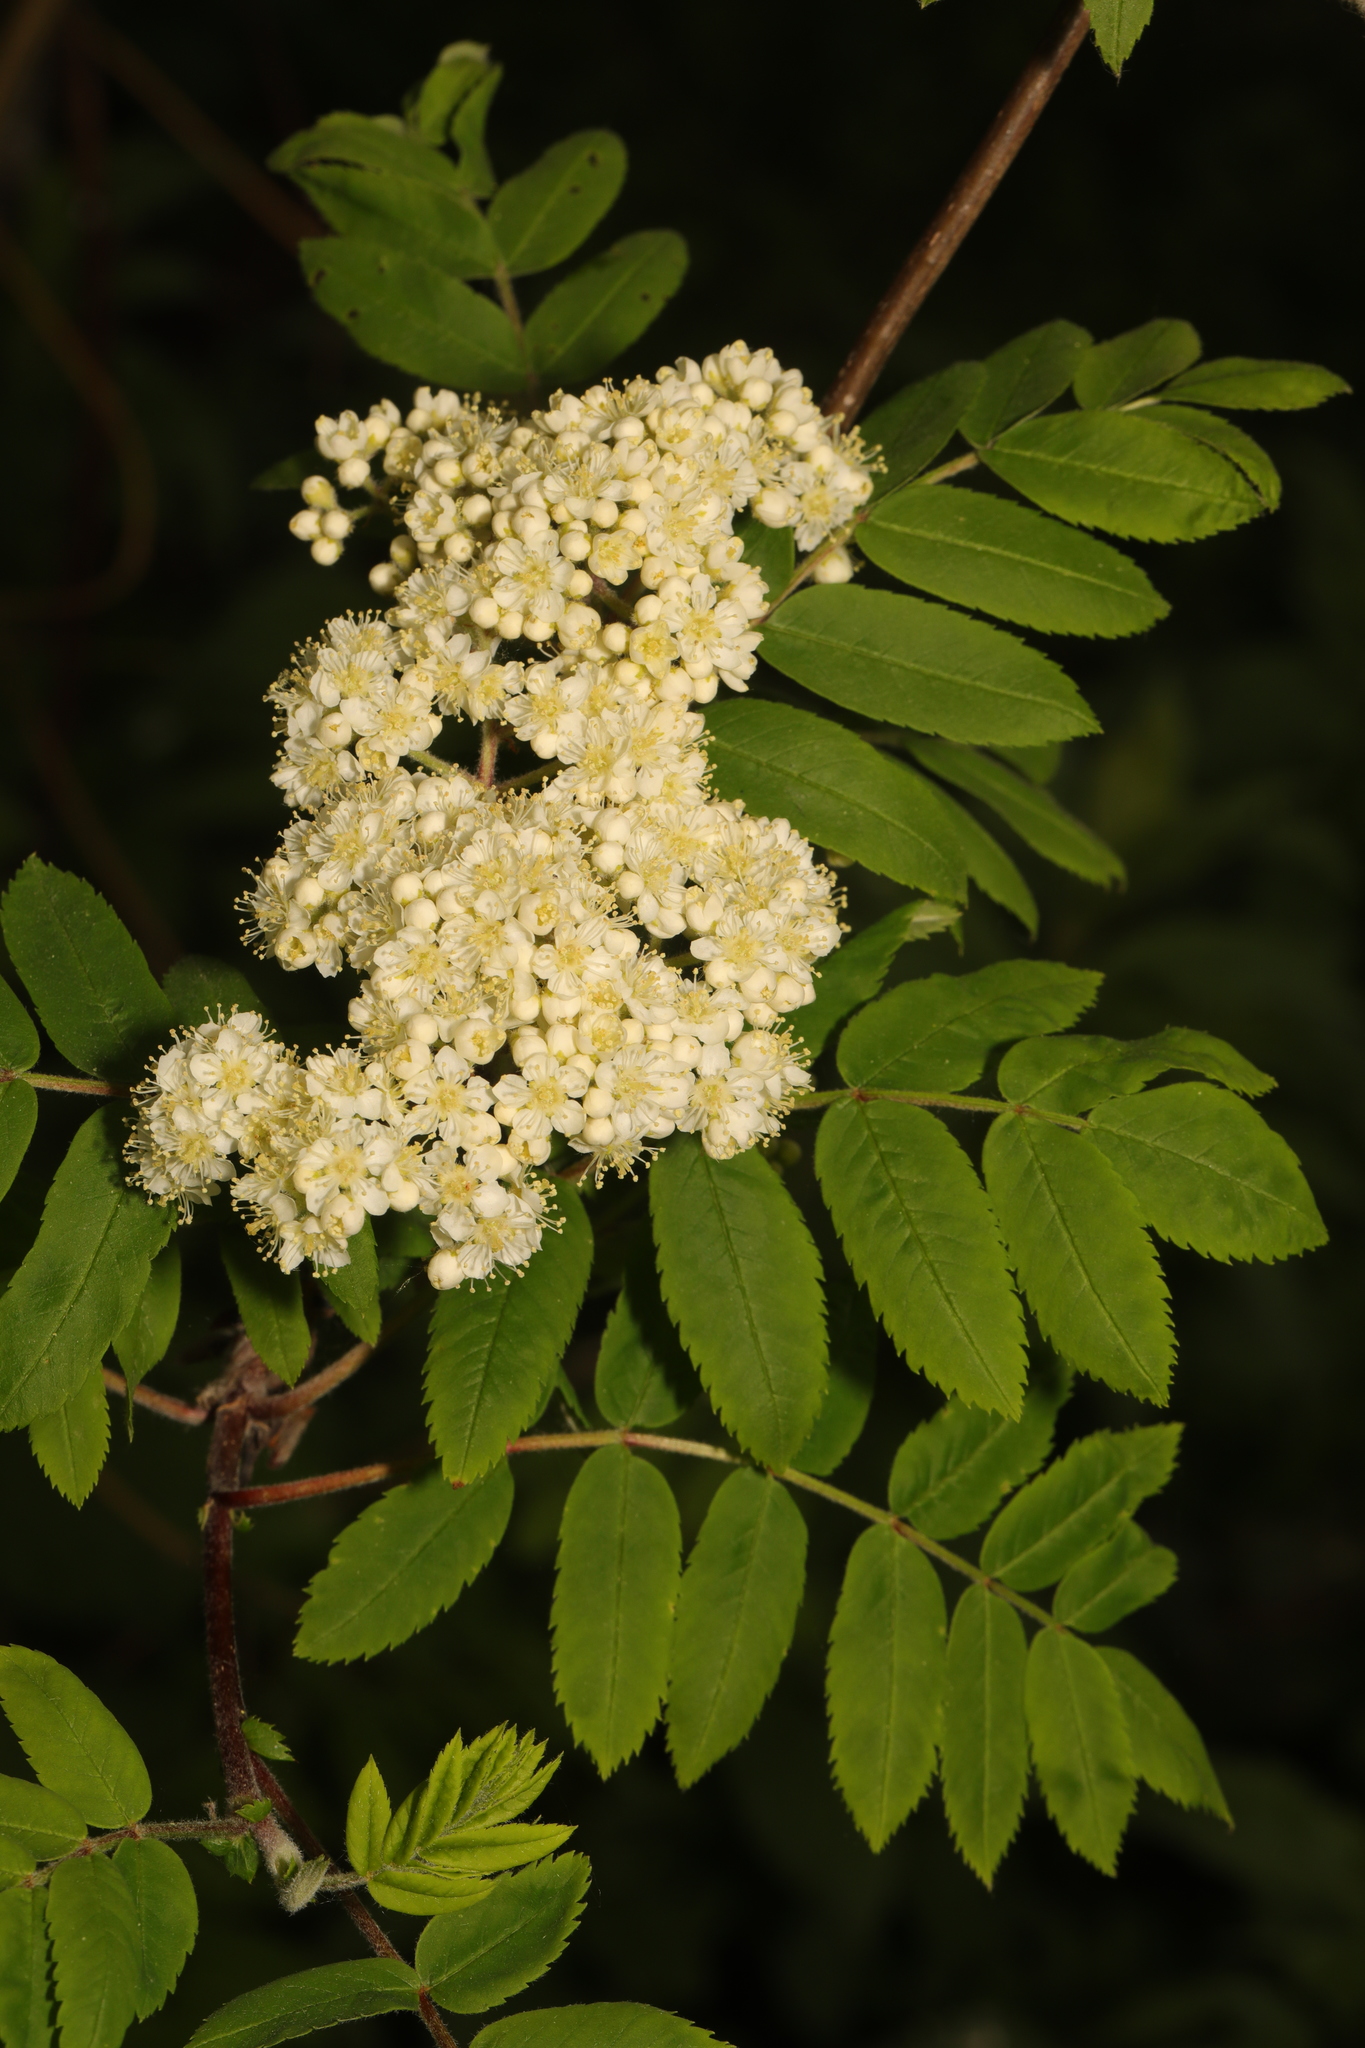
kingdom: Plantae
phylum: Tracheophyta
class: Magnoliopsida
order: Rosales
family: Rosaceae
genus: Sorbus
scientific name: Sorbus aucuparia
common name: Rowan
